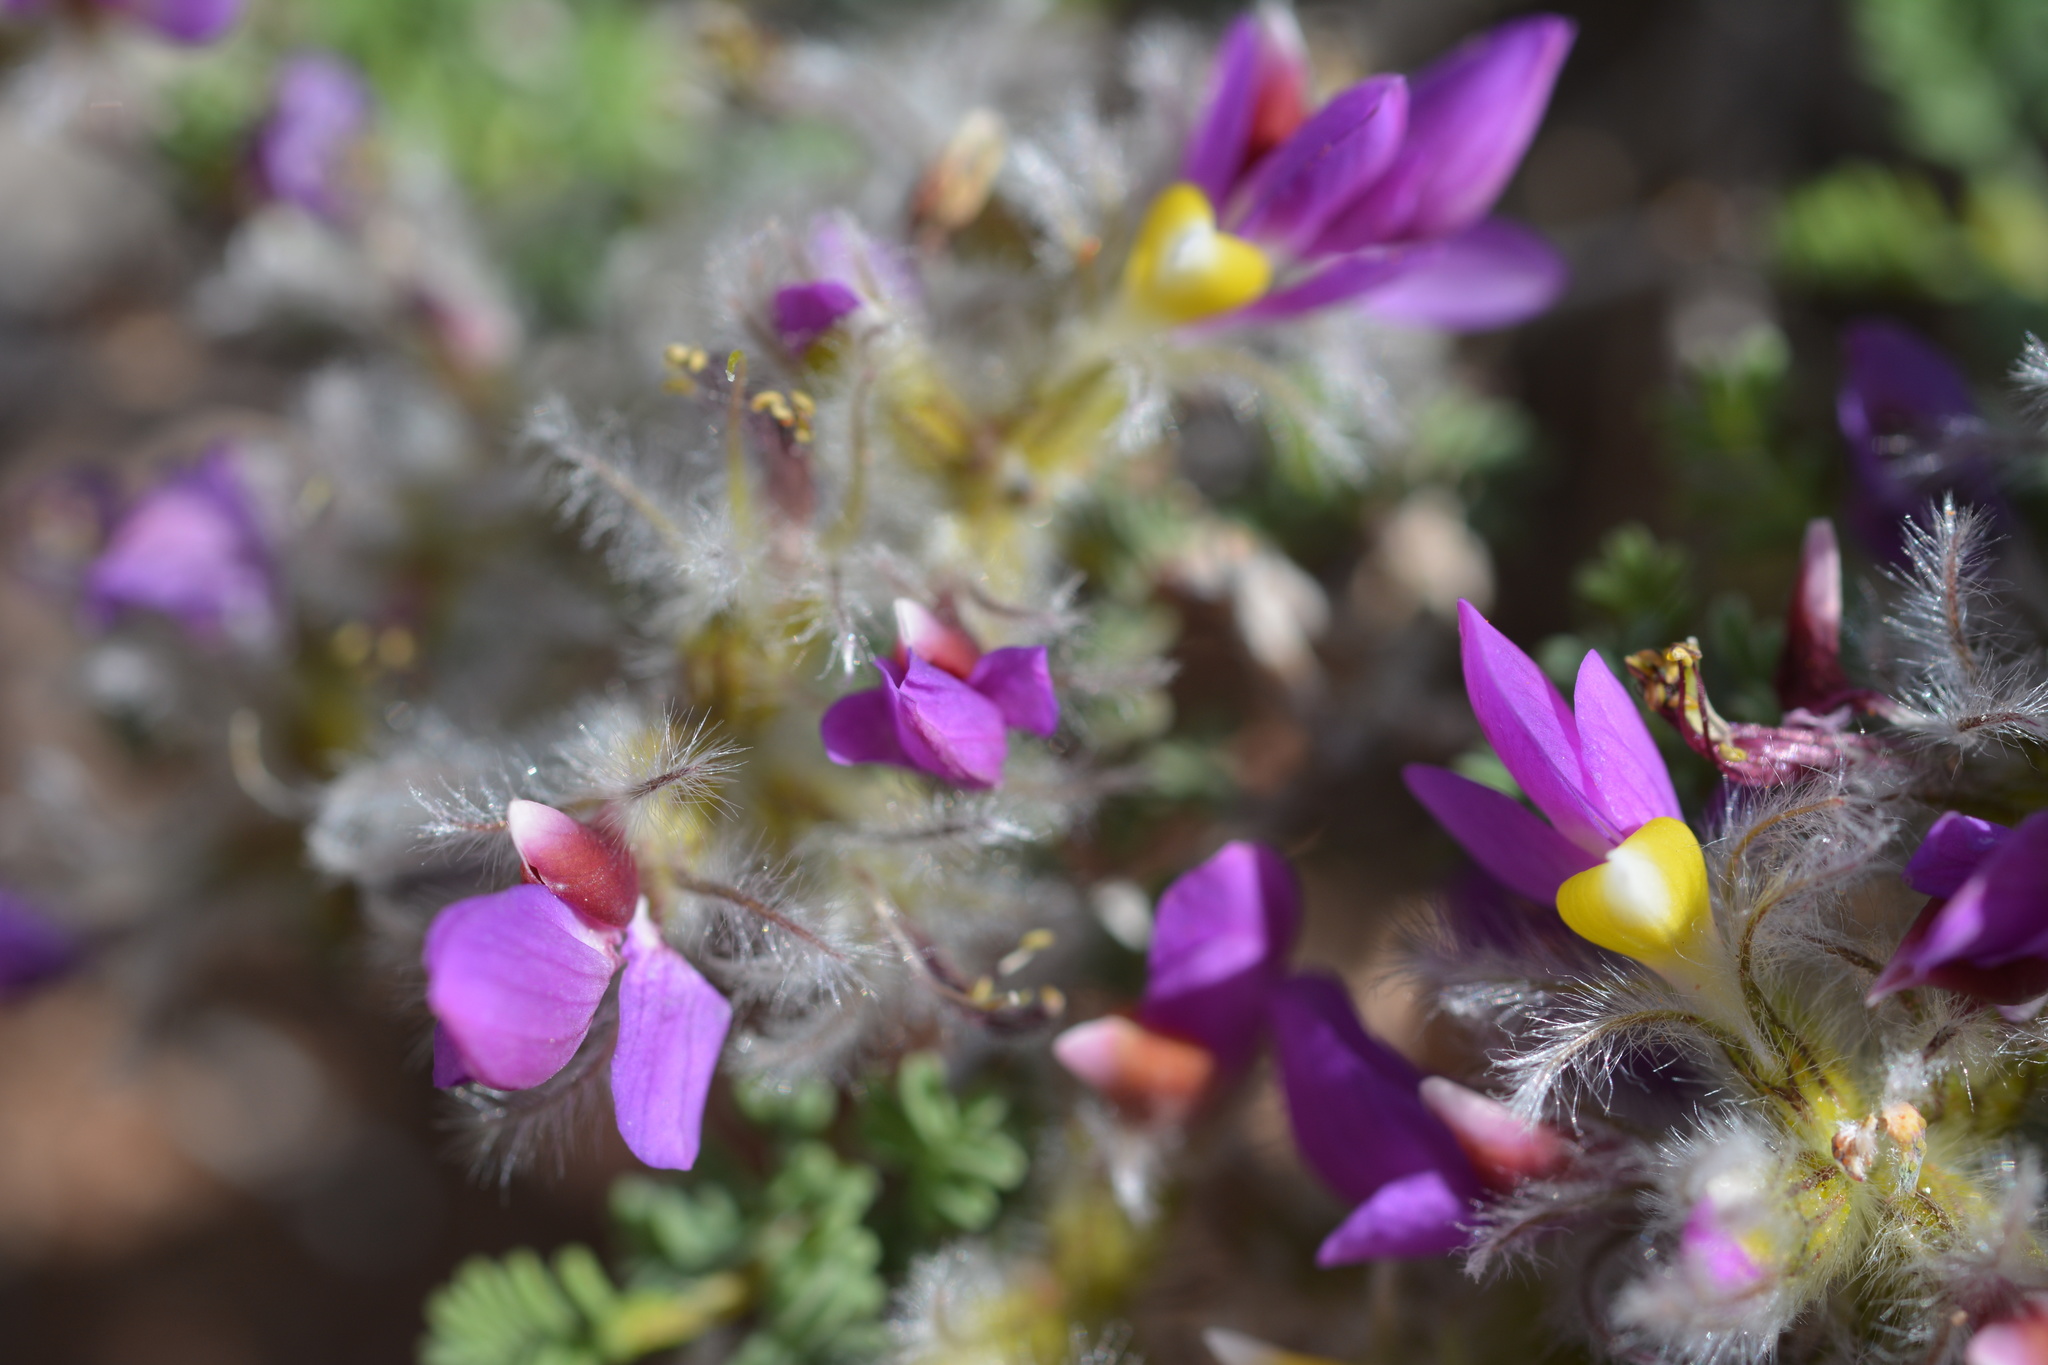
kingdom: Plantae
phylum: Tracheophyta
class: Magnoliopsida
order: Fabales
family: Fabaceae
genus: Dalea
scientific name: Dalea formosa
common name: Feather-plume dalea
